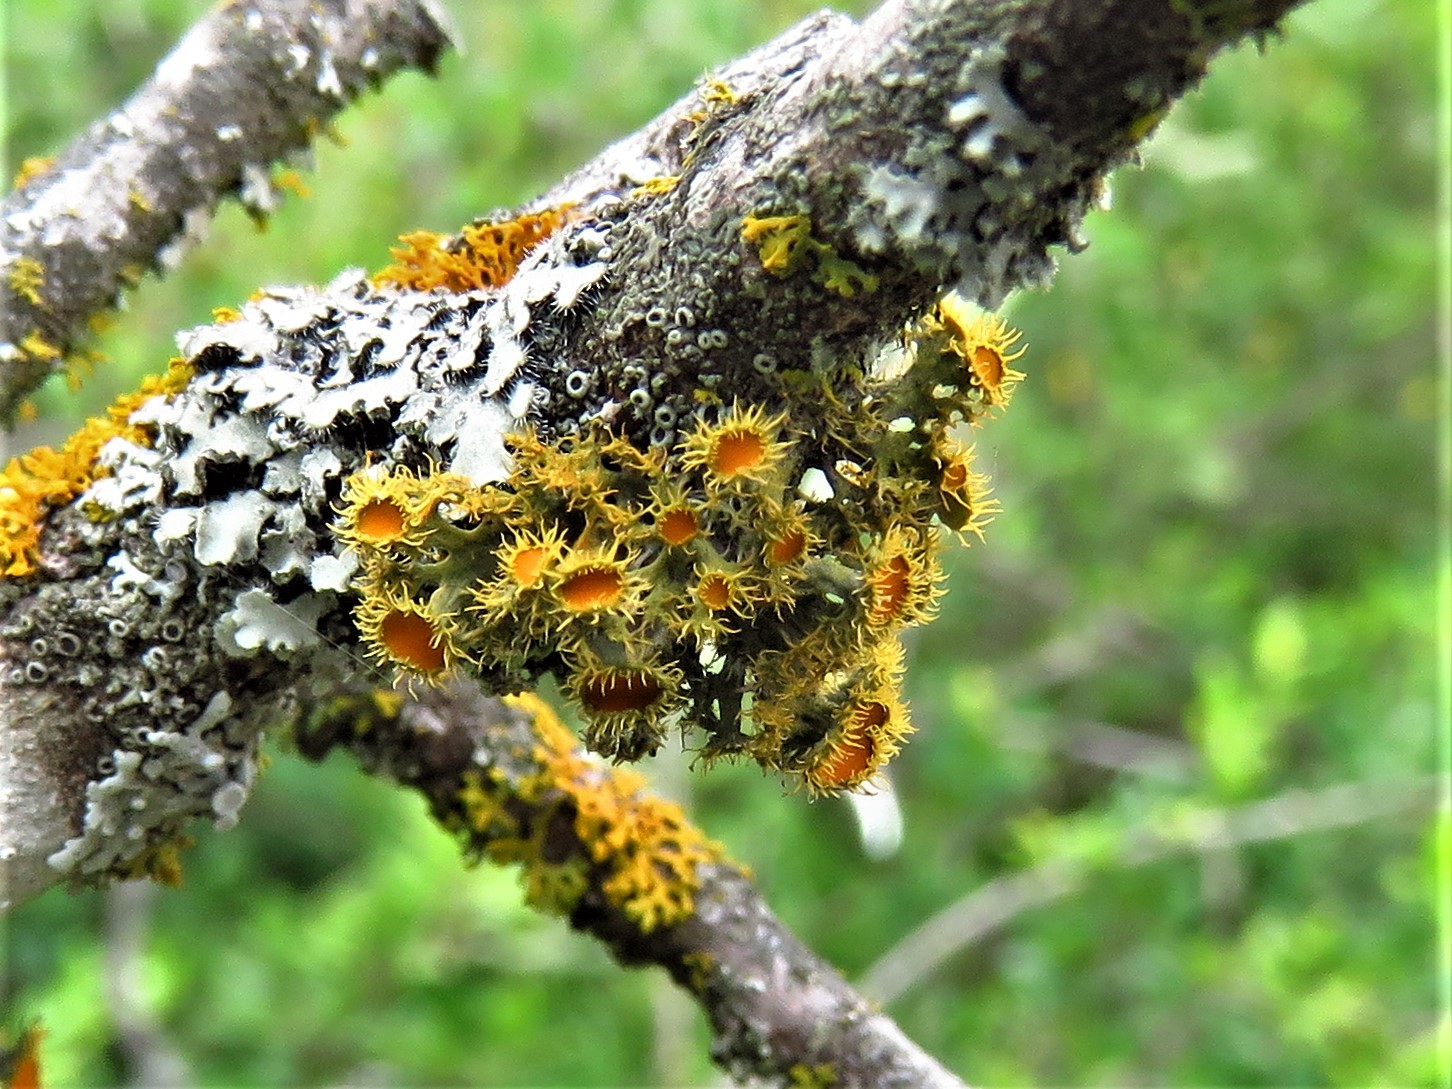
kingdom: Fungi
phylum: Ascomycota
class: Lecanoromycetes
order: Teloschistales
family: Teloschistaceae
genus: Niorma
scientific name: Niorma chrysophthalma
